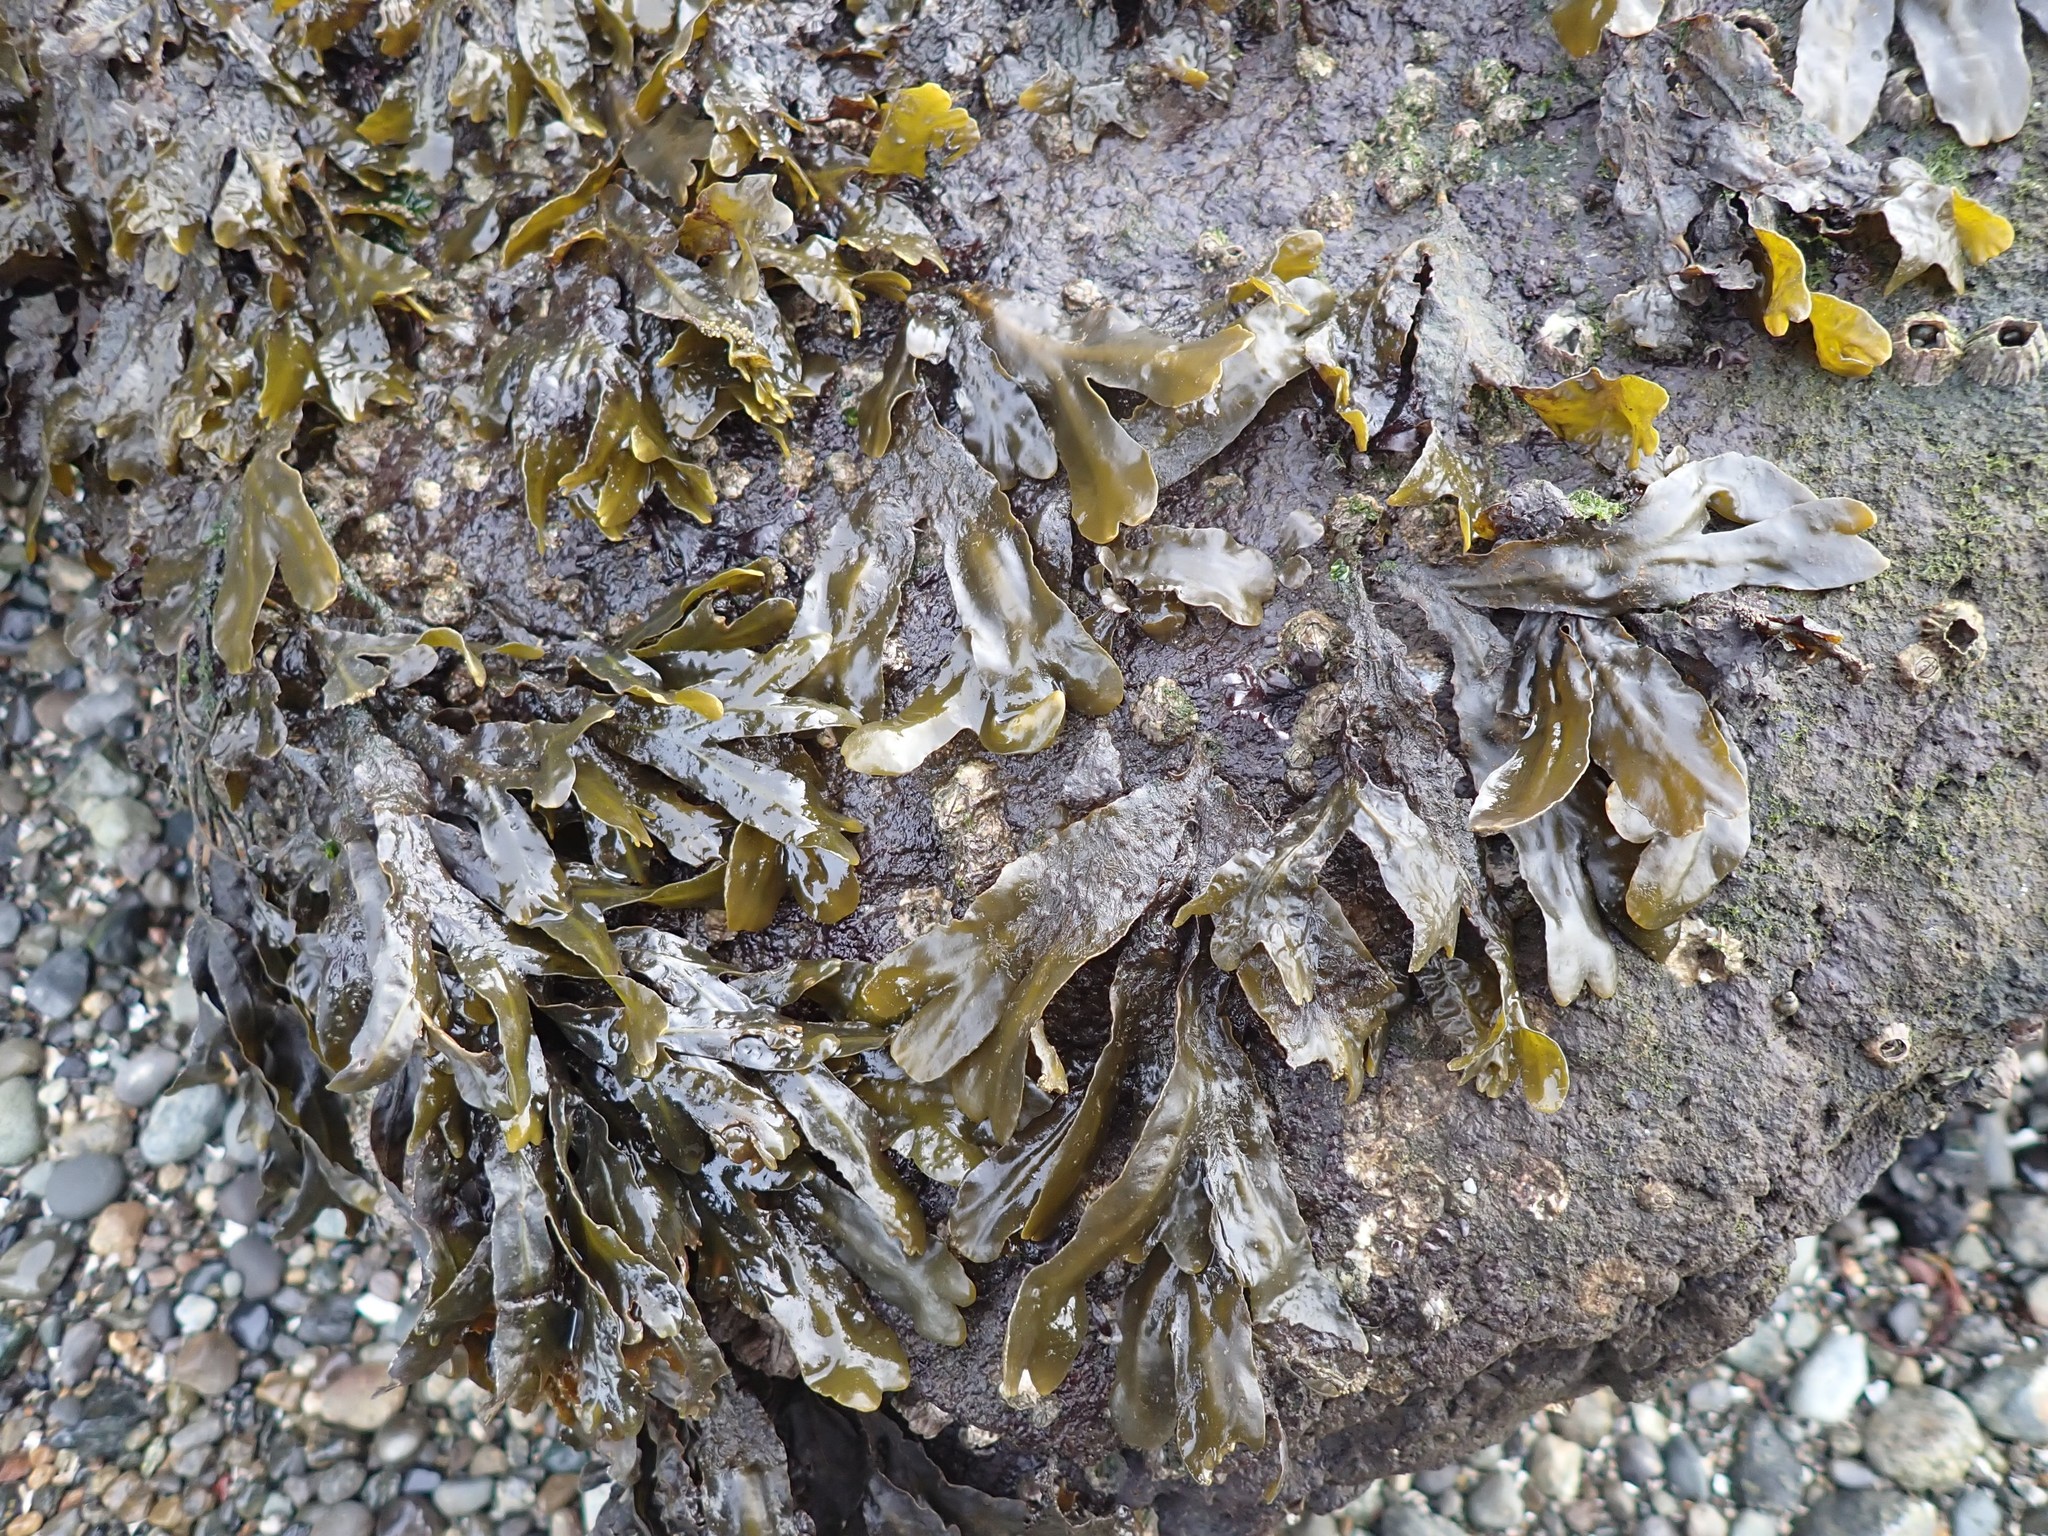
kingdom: Chromista
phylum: Ochrophyta
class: Phaeophyceae
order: Fucales
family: Fucaceae
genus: Fucus
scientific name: Fucus distichus
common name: Rockweed
